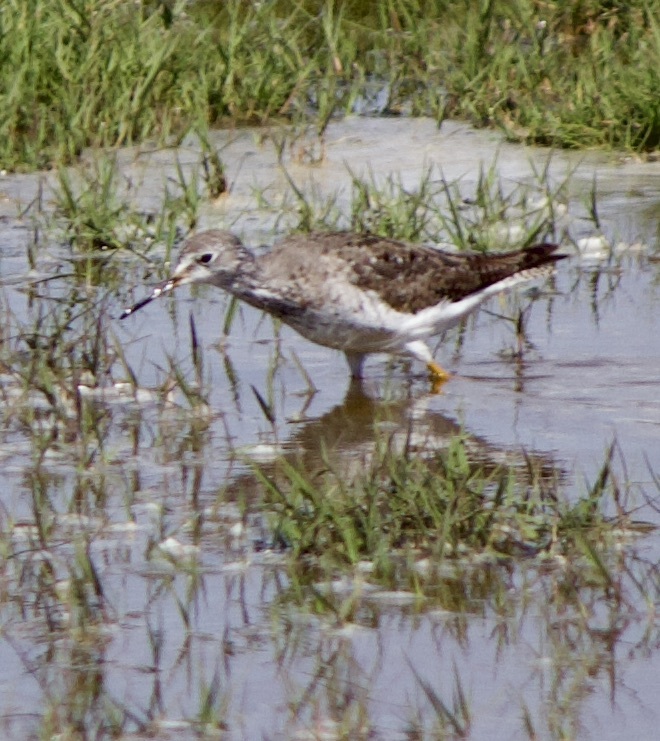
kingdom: Animalia
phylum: Chordata
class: Aves
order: Charadriiformes
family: Scolopacidae
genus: Tringa
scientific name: Tringa flavipes
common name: Lesser yellowlegs
